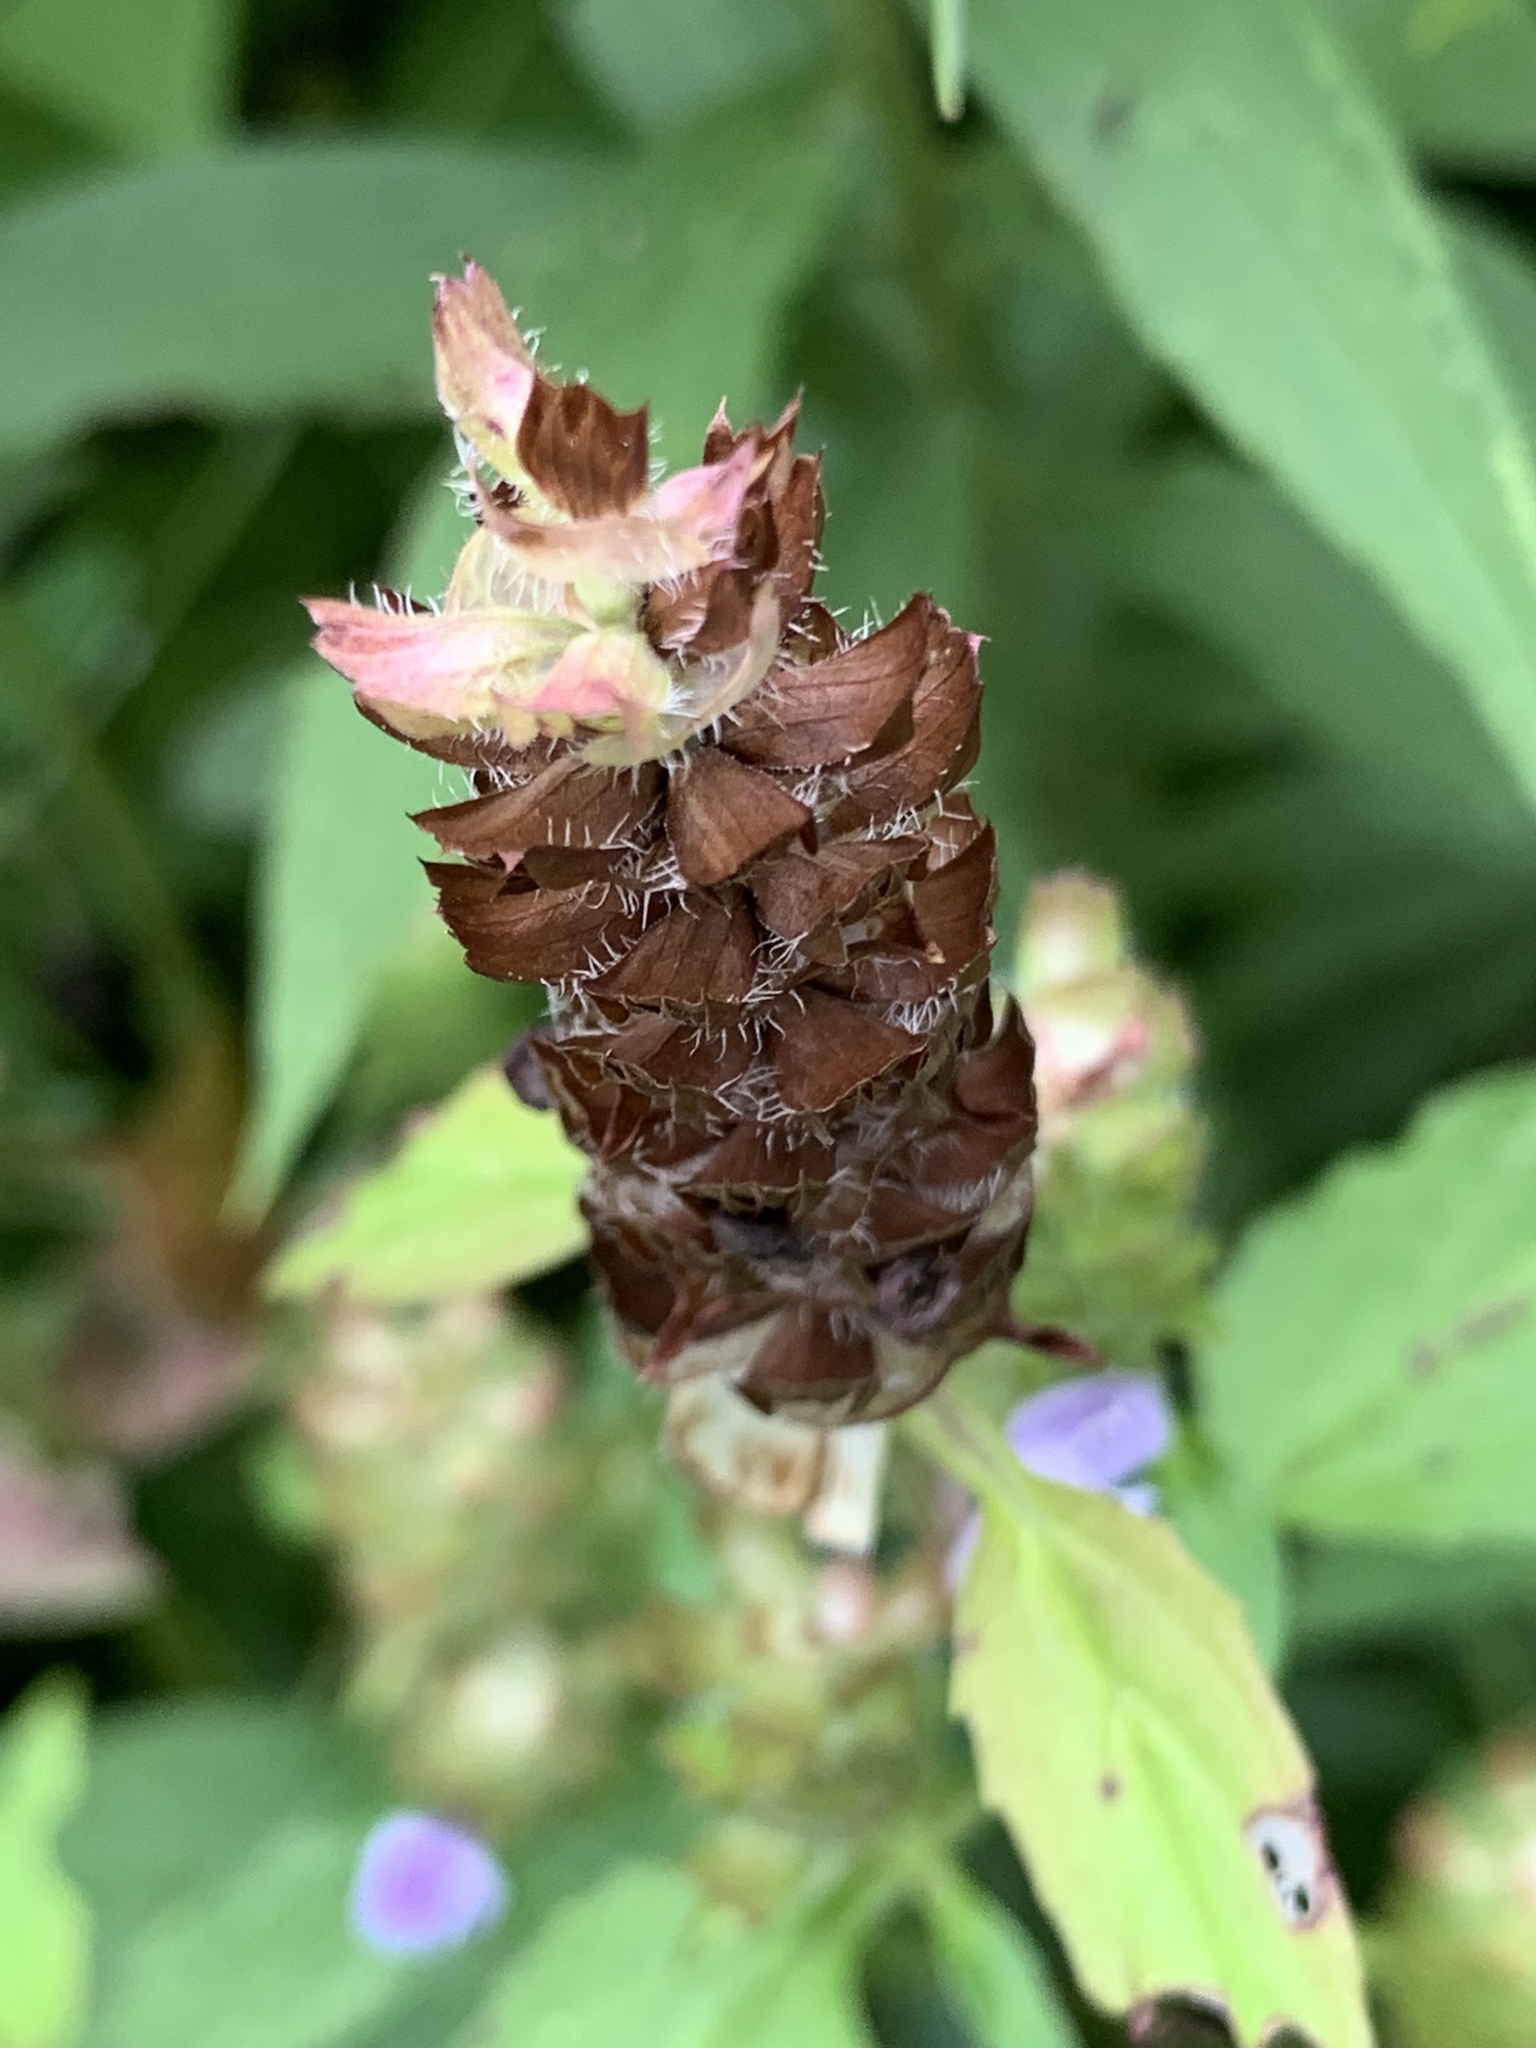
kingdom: Plantae
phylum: Tracheophyta
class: Magnoliopsida
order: Lamiales
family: Lamiaceae
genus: Prunella
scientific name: Prunella vulgaris
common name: Heal-all
